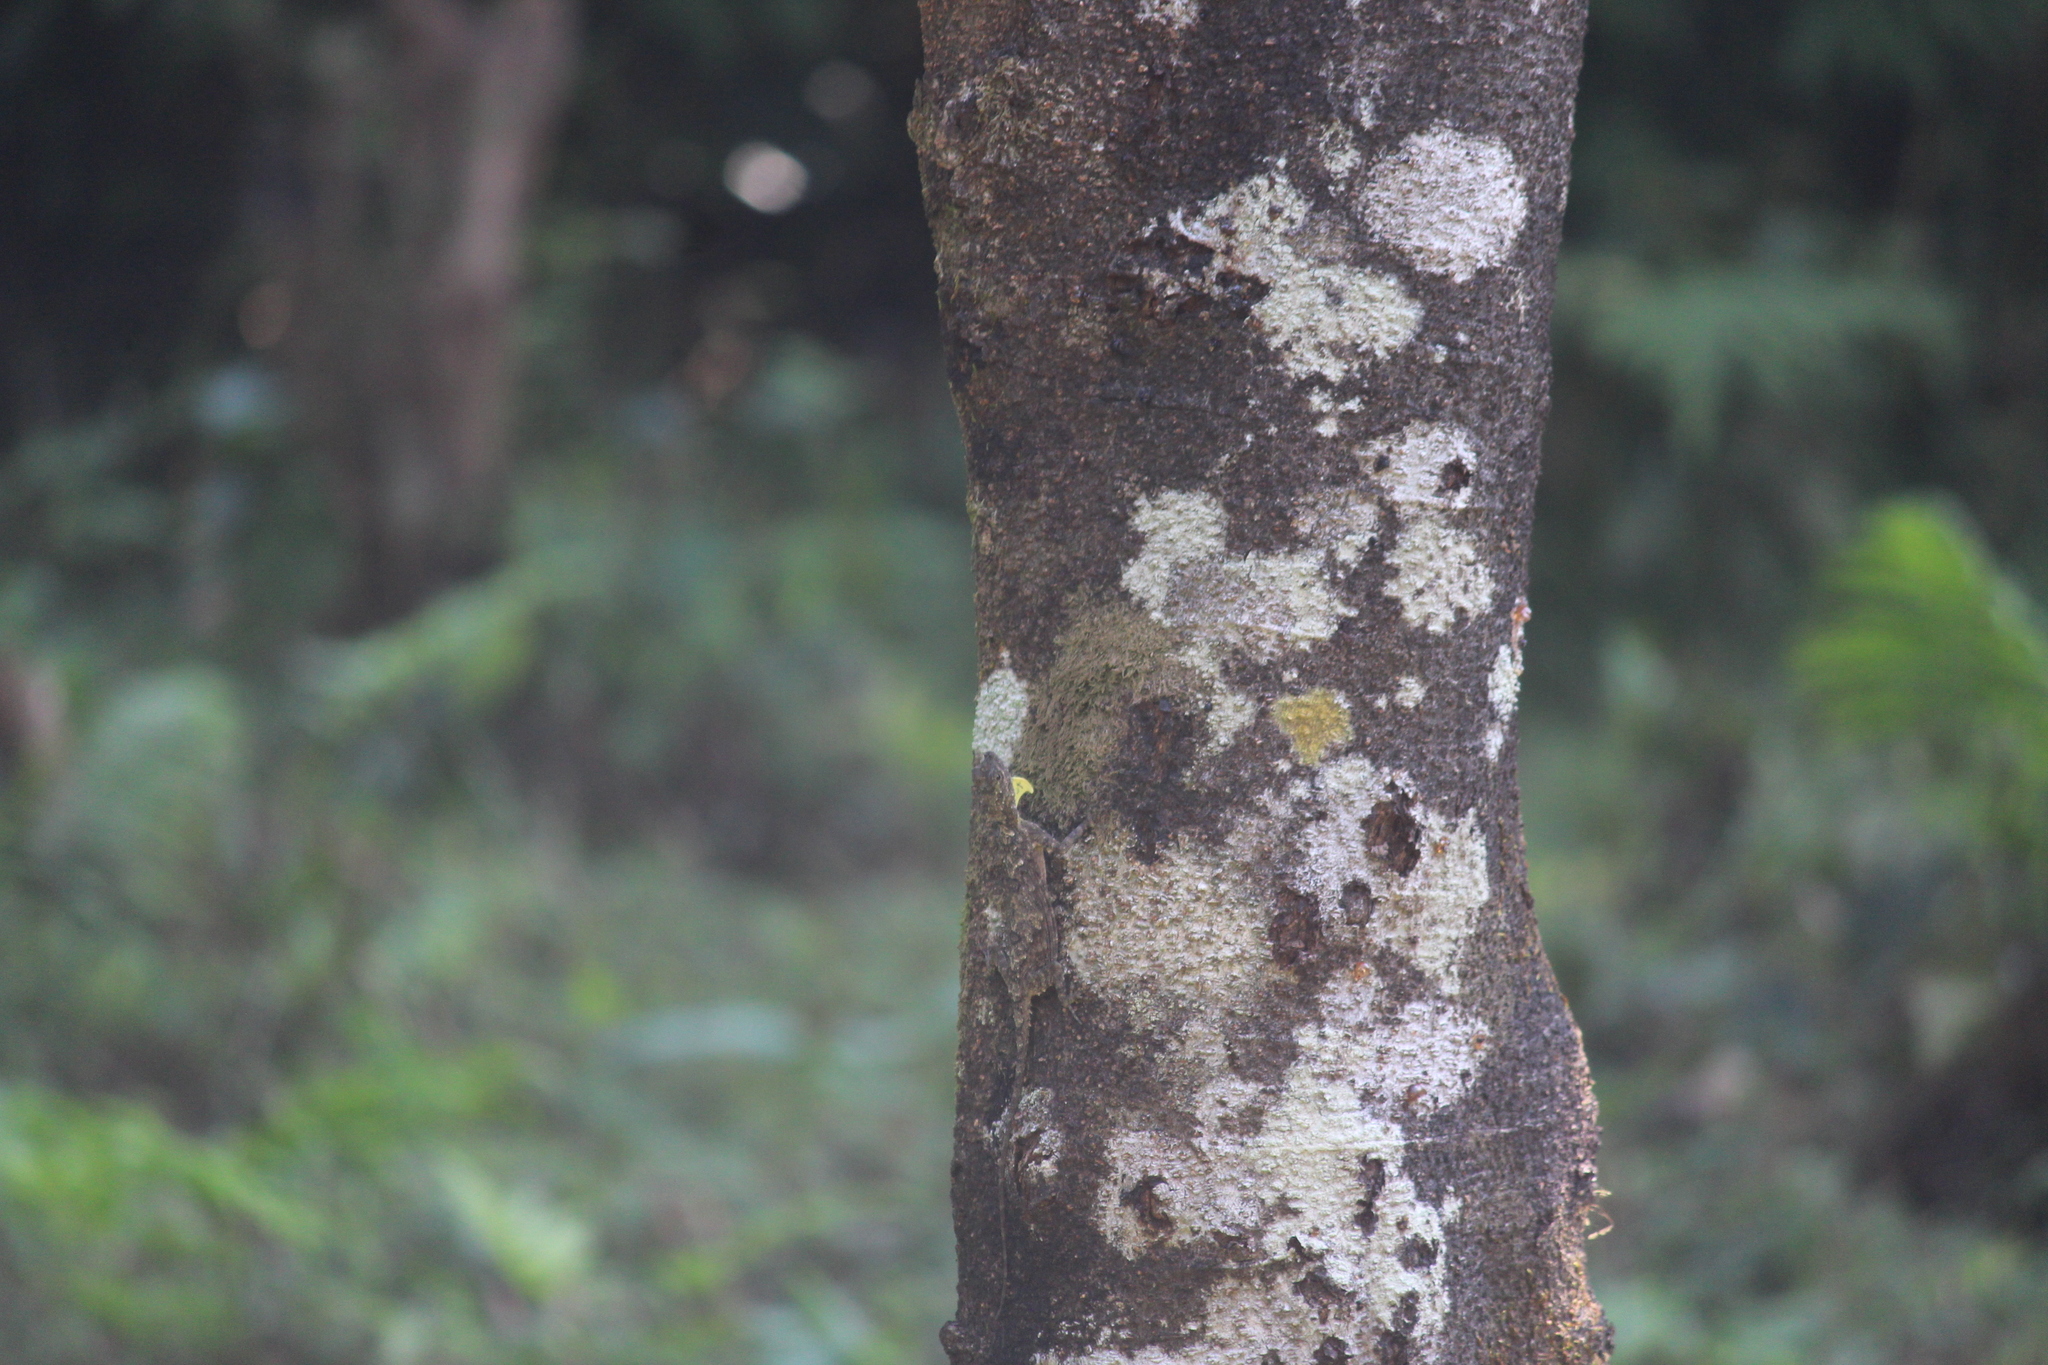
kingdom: Animalia
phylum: Chordata
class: Squamata
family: Agamidae
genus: Draco
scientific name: Draco dussumieri
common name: Southern flying lizard
